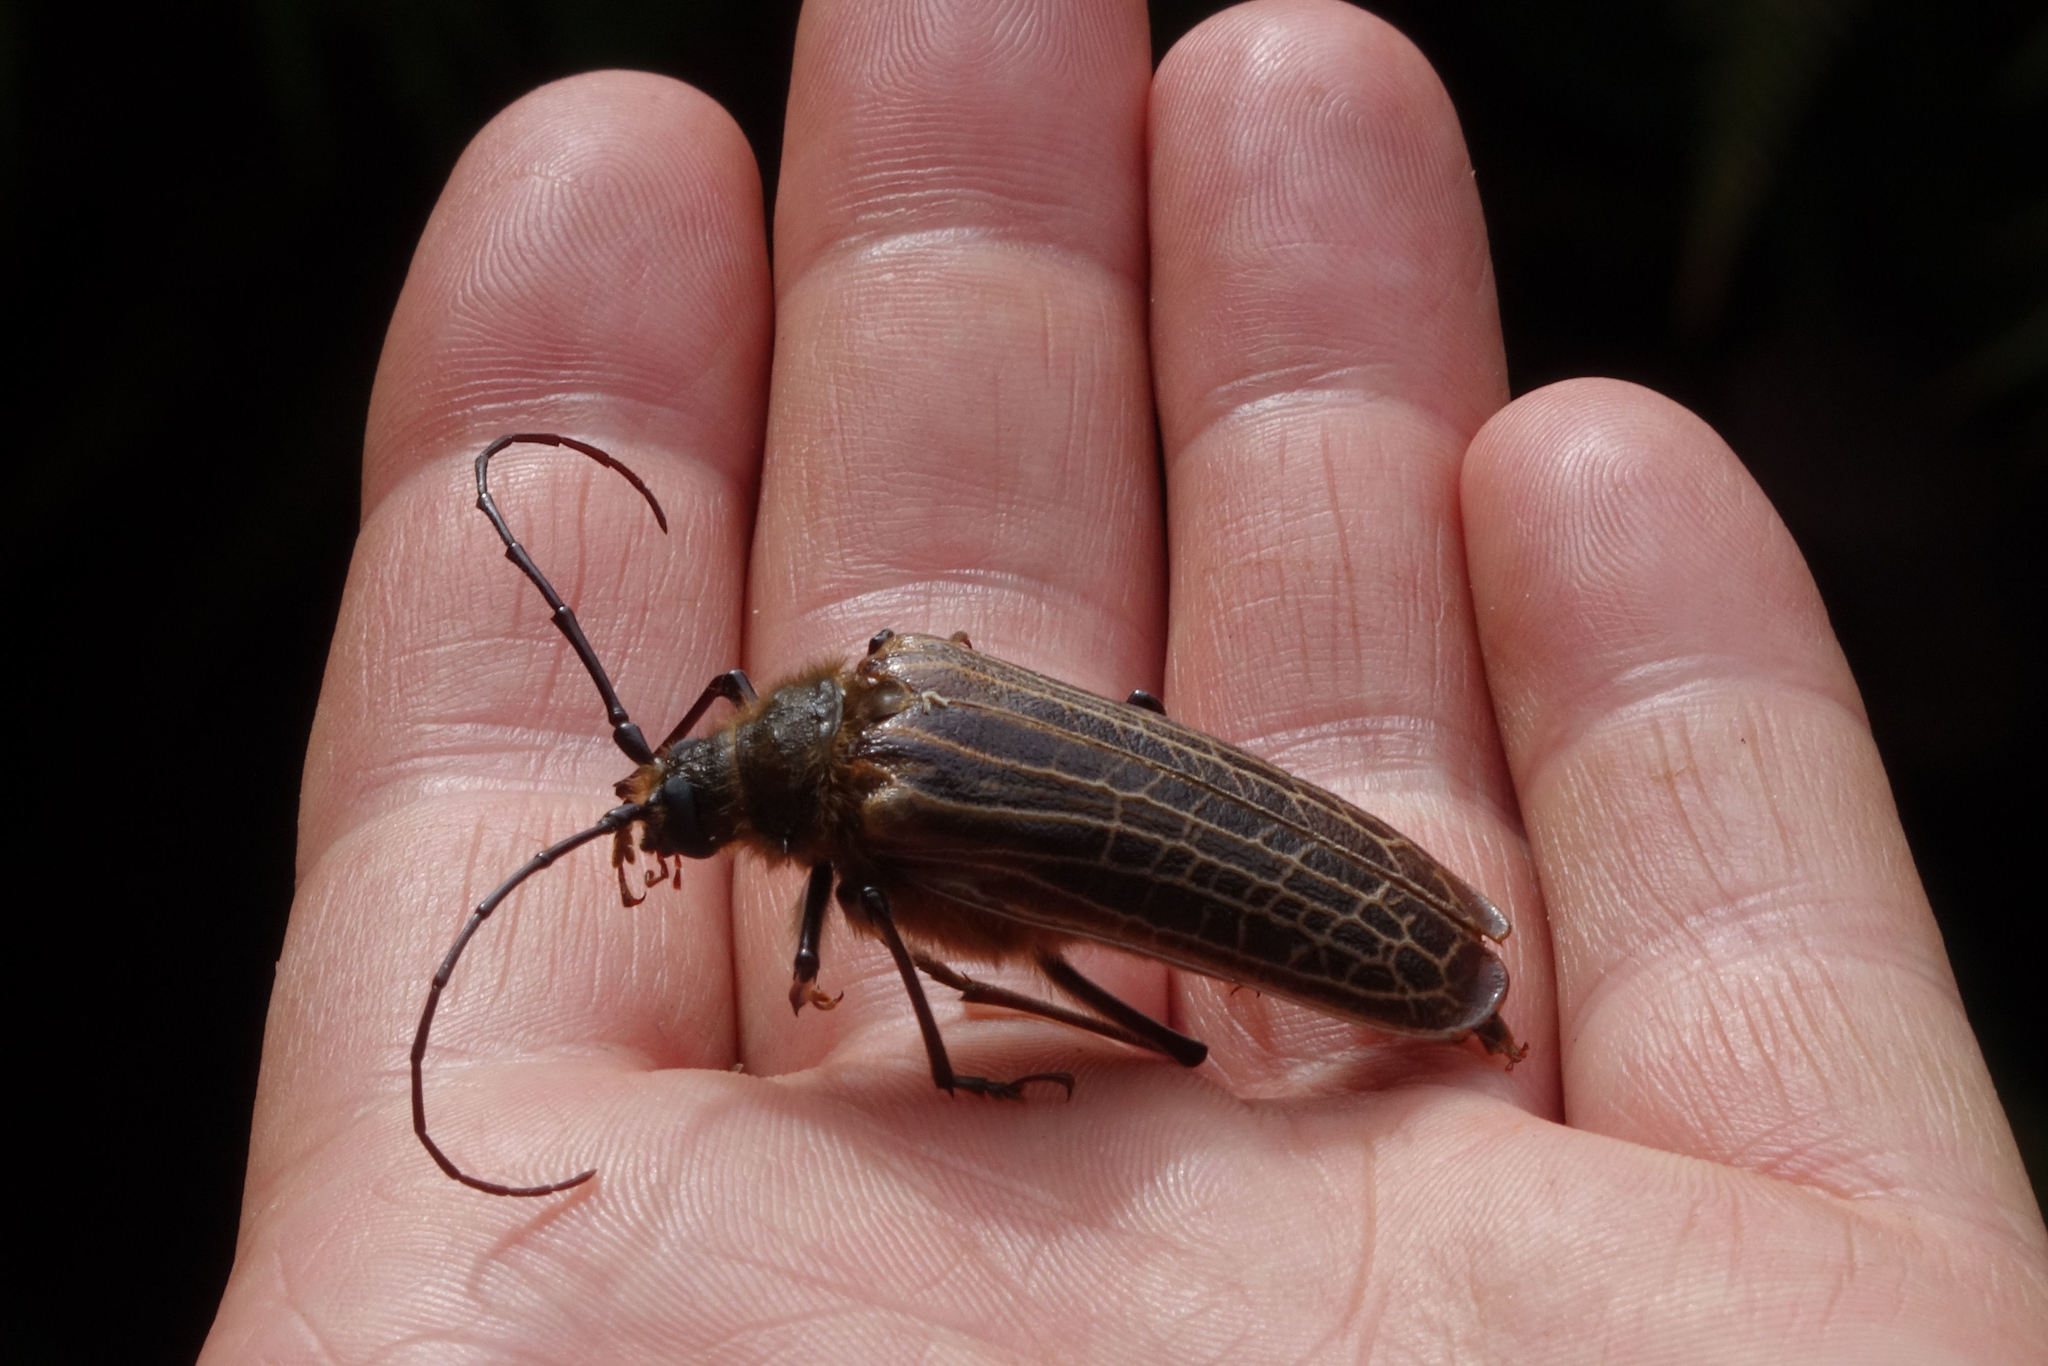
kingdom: Animalia
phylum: Arthropoda
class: Insecta
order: Coleoptera
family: Cerambycidae
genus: Prionoplus
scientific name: Prionoplus reticularis
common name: Huhu beetle
